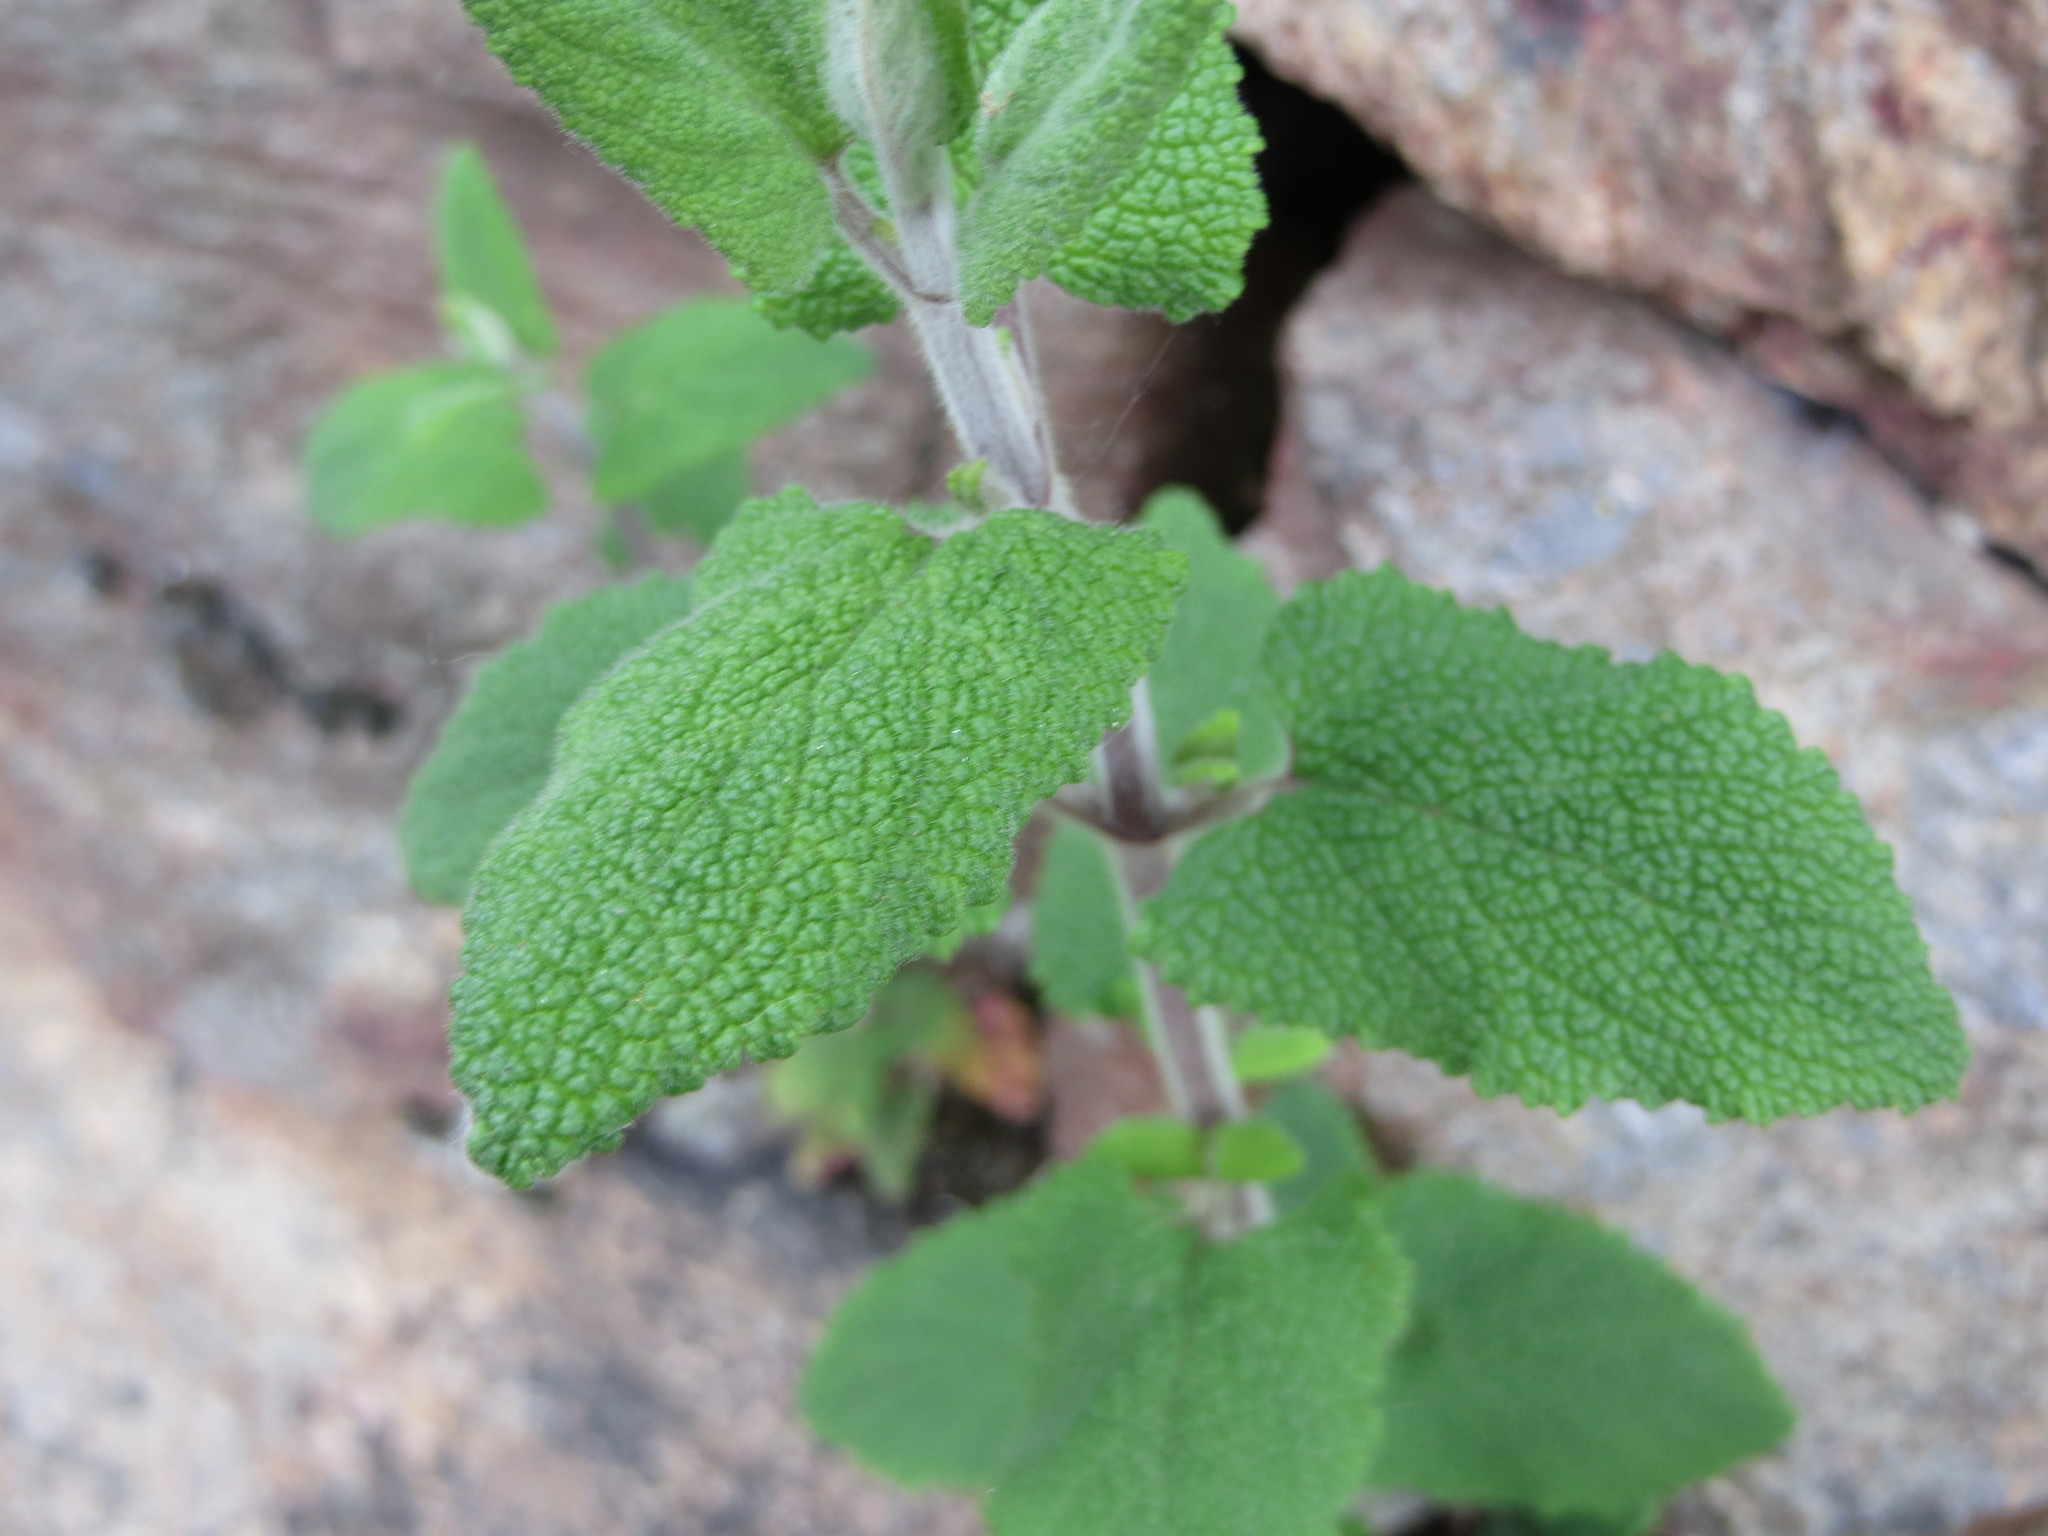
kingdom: Plantae
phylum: Tracheophyta
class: Magnoliopsida
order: Lamiales
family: Lamiaceae
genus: Teucrium
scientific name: Teucrium scorodonia
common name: Woodland germander
